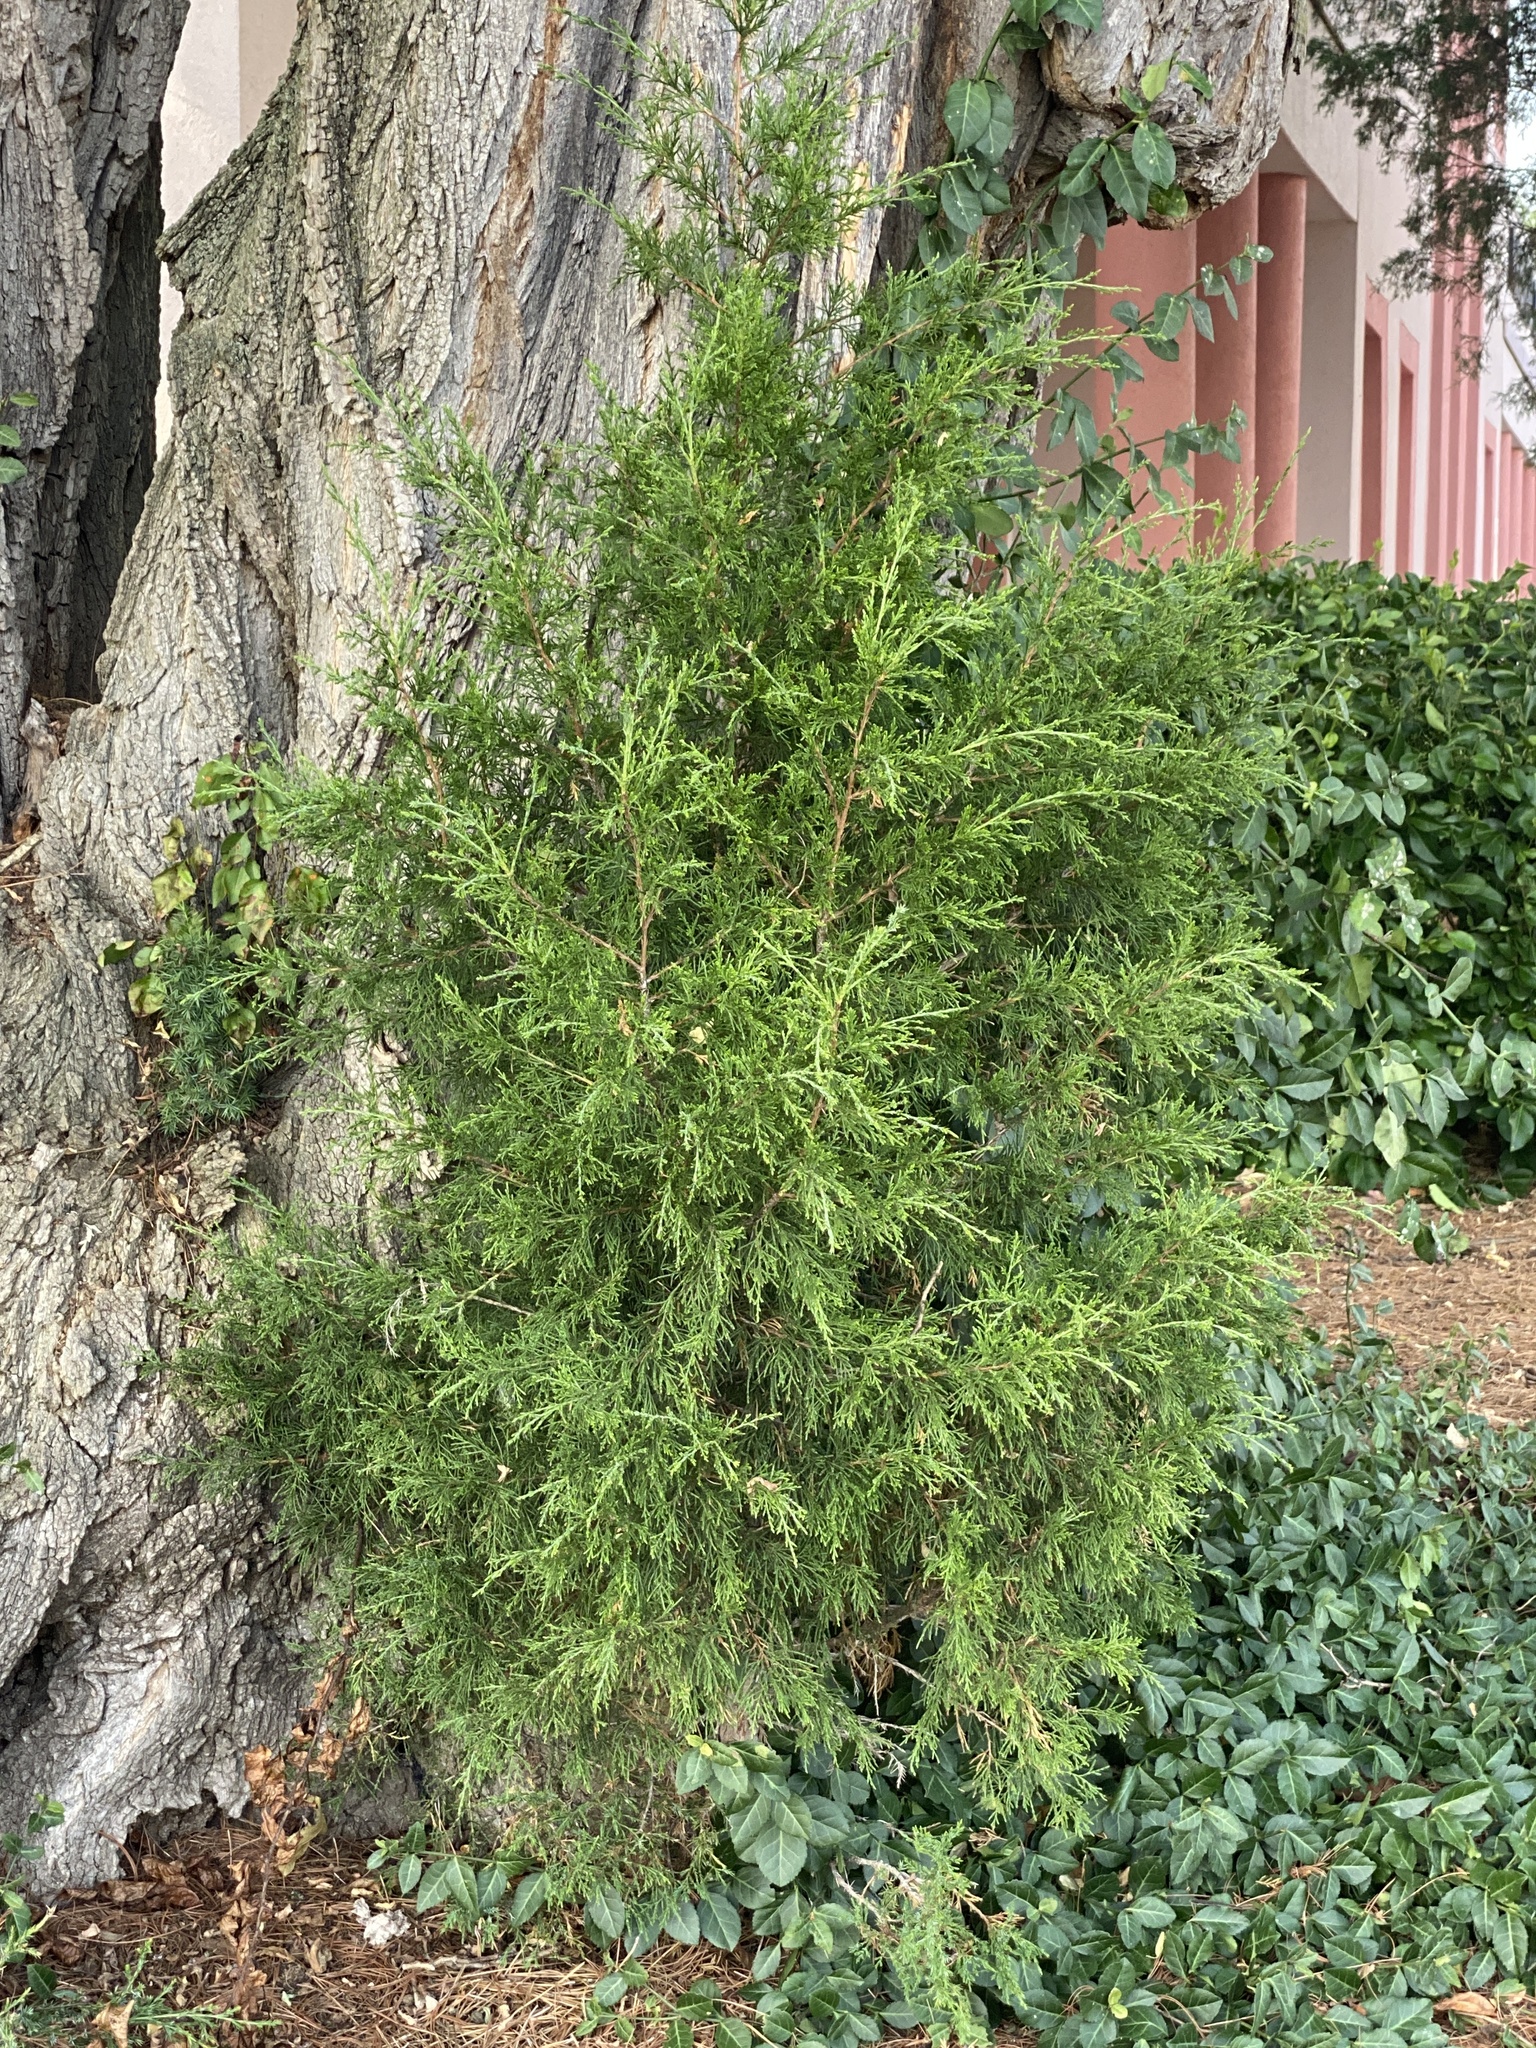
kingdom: Plantae
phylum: Tracheophyta
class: Pinopsida
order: Pinales
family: Cupressaceae
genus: Juniperus
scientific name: Juniperus virginiana
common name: Red juniper
